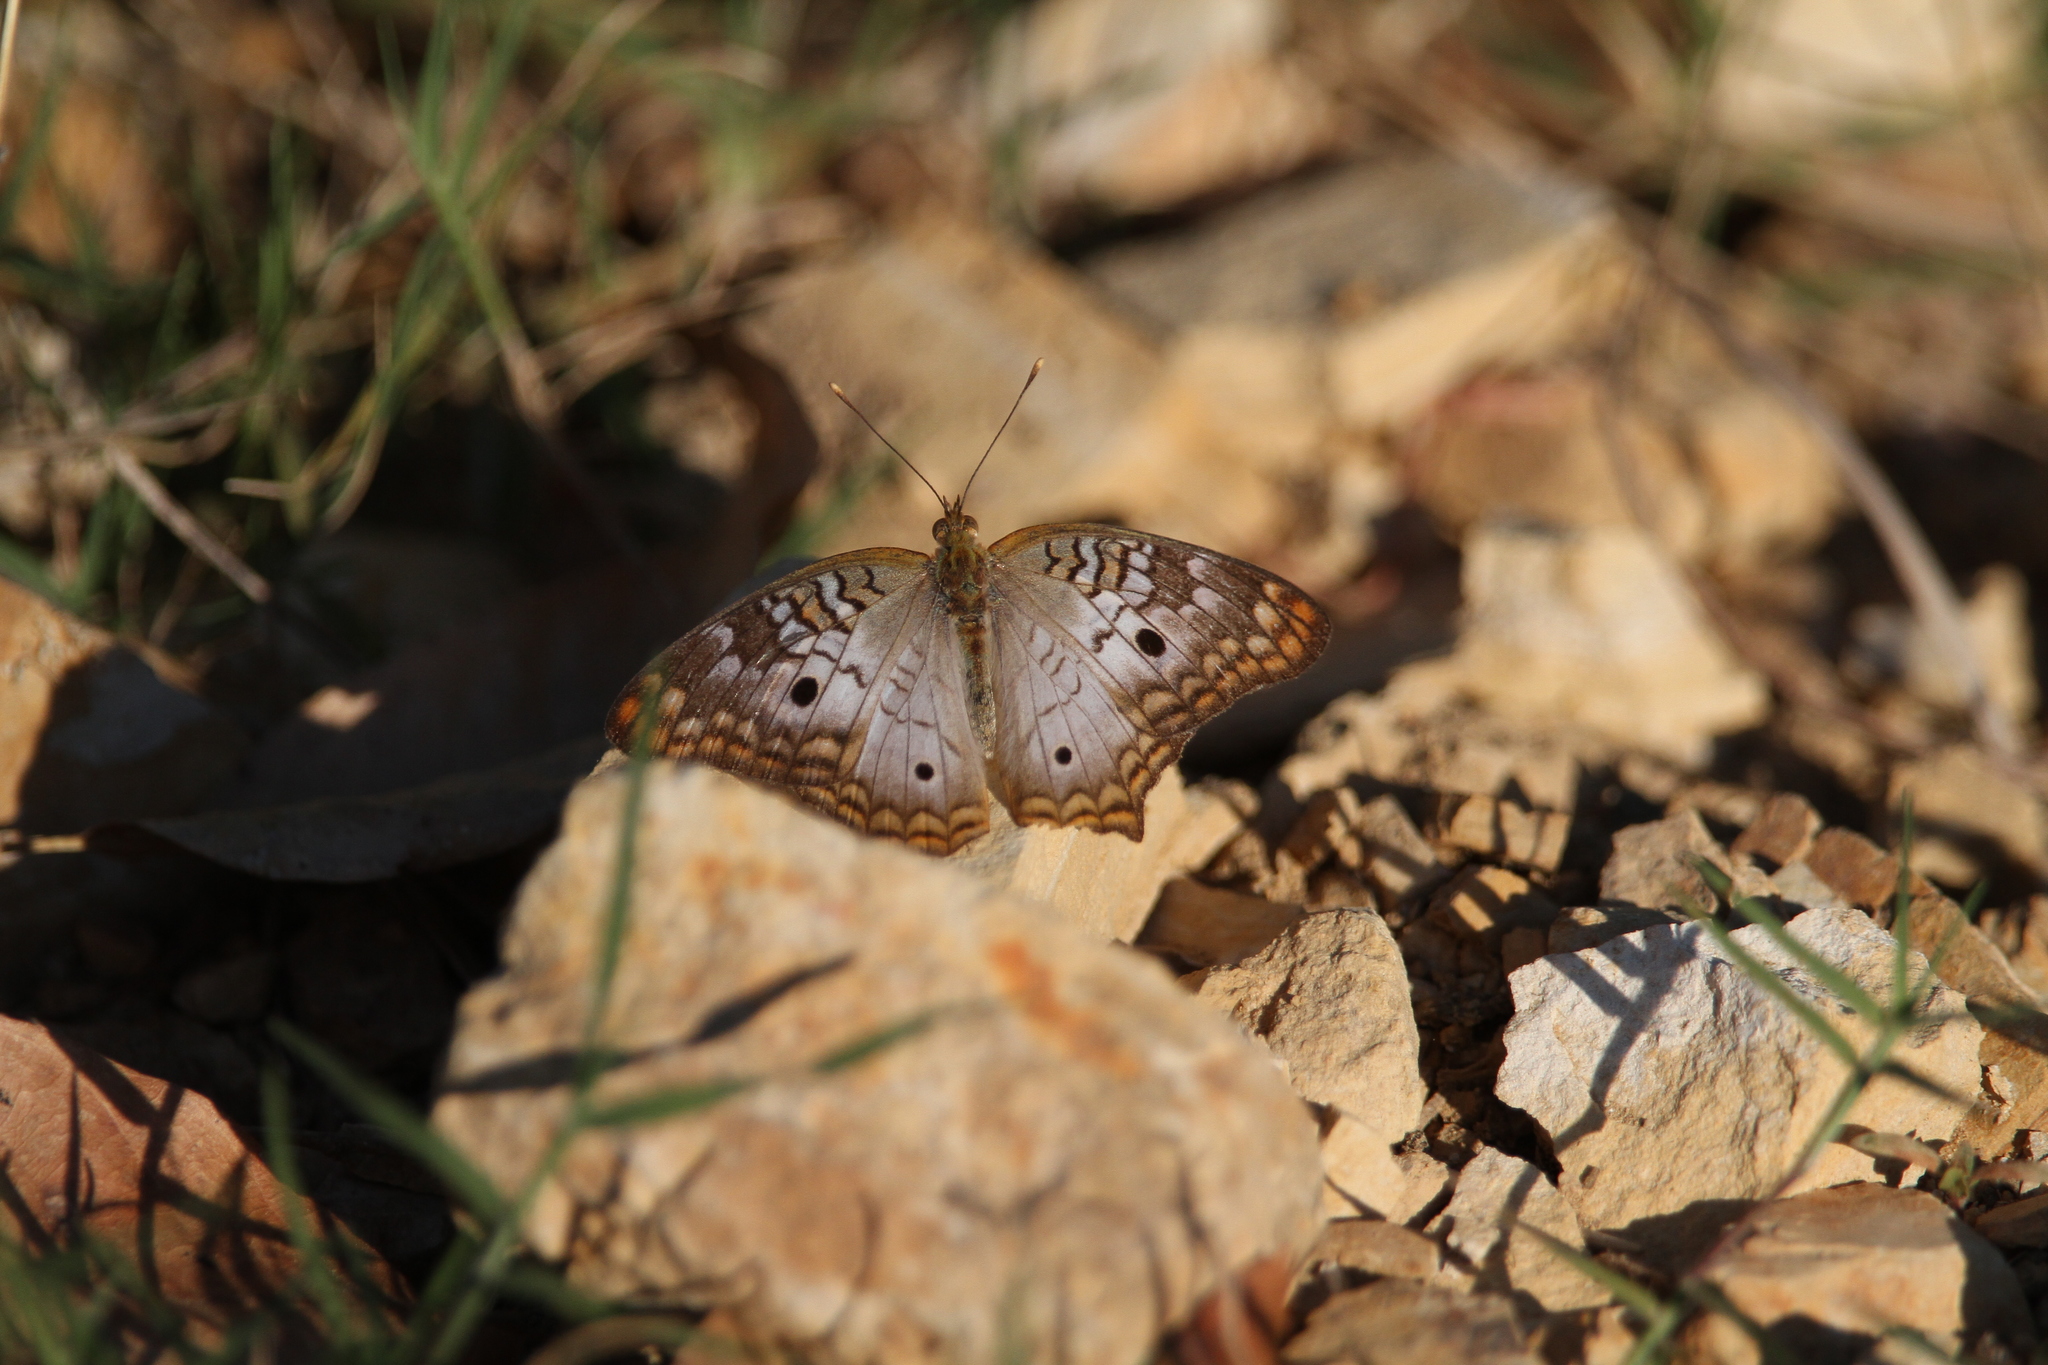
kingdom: Animalia
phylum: Arthropoda
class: Insecta
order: Lepidoptera
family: Nymphalidae
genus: Anartia
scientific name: Anartia jatrophae
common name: White peacock
